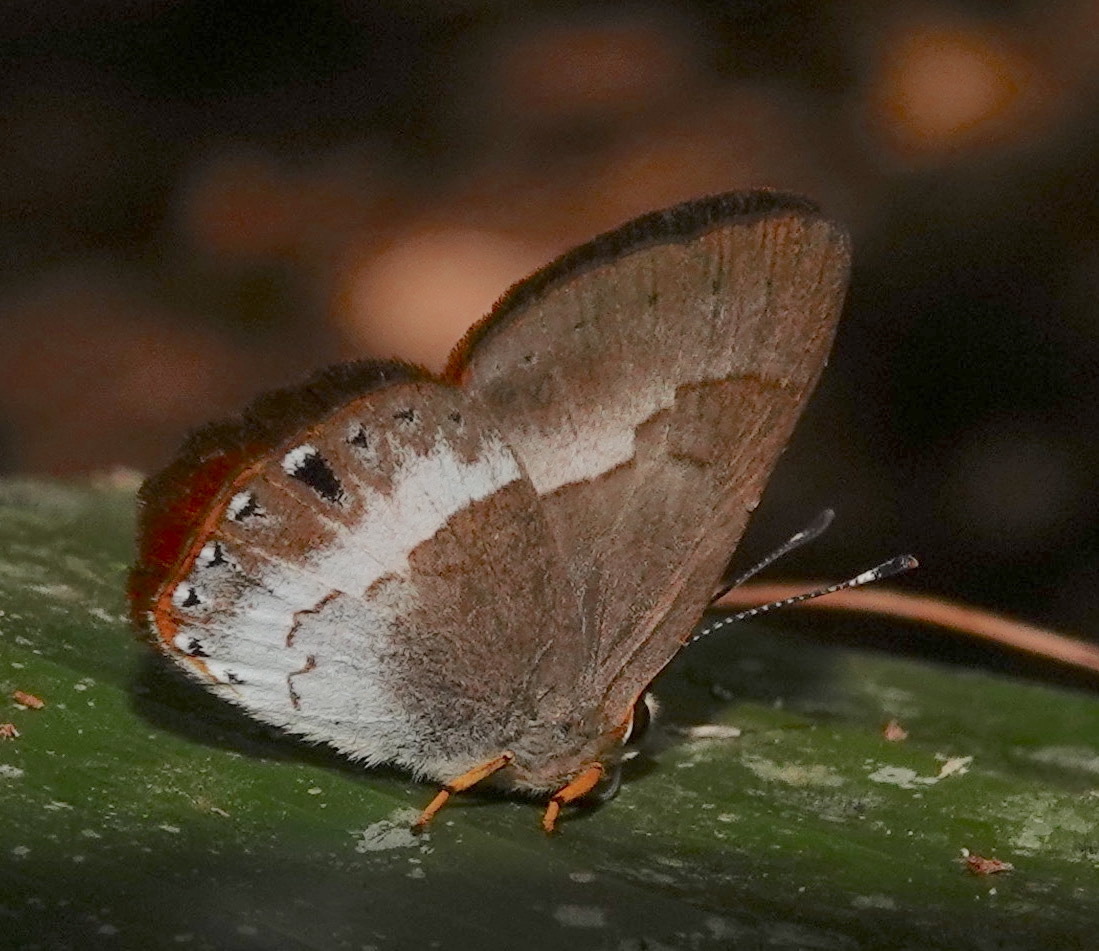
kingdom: Animalia
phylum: Arthropoda
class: Insecta
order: Lepidoptera
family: Lycaenidae
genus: Euselasia
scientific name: Euselasia authe
